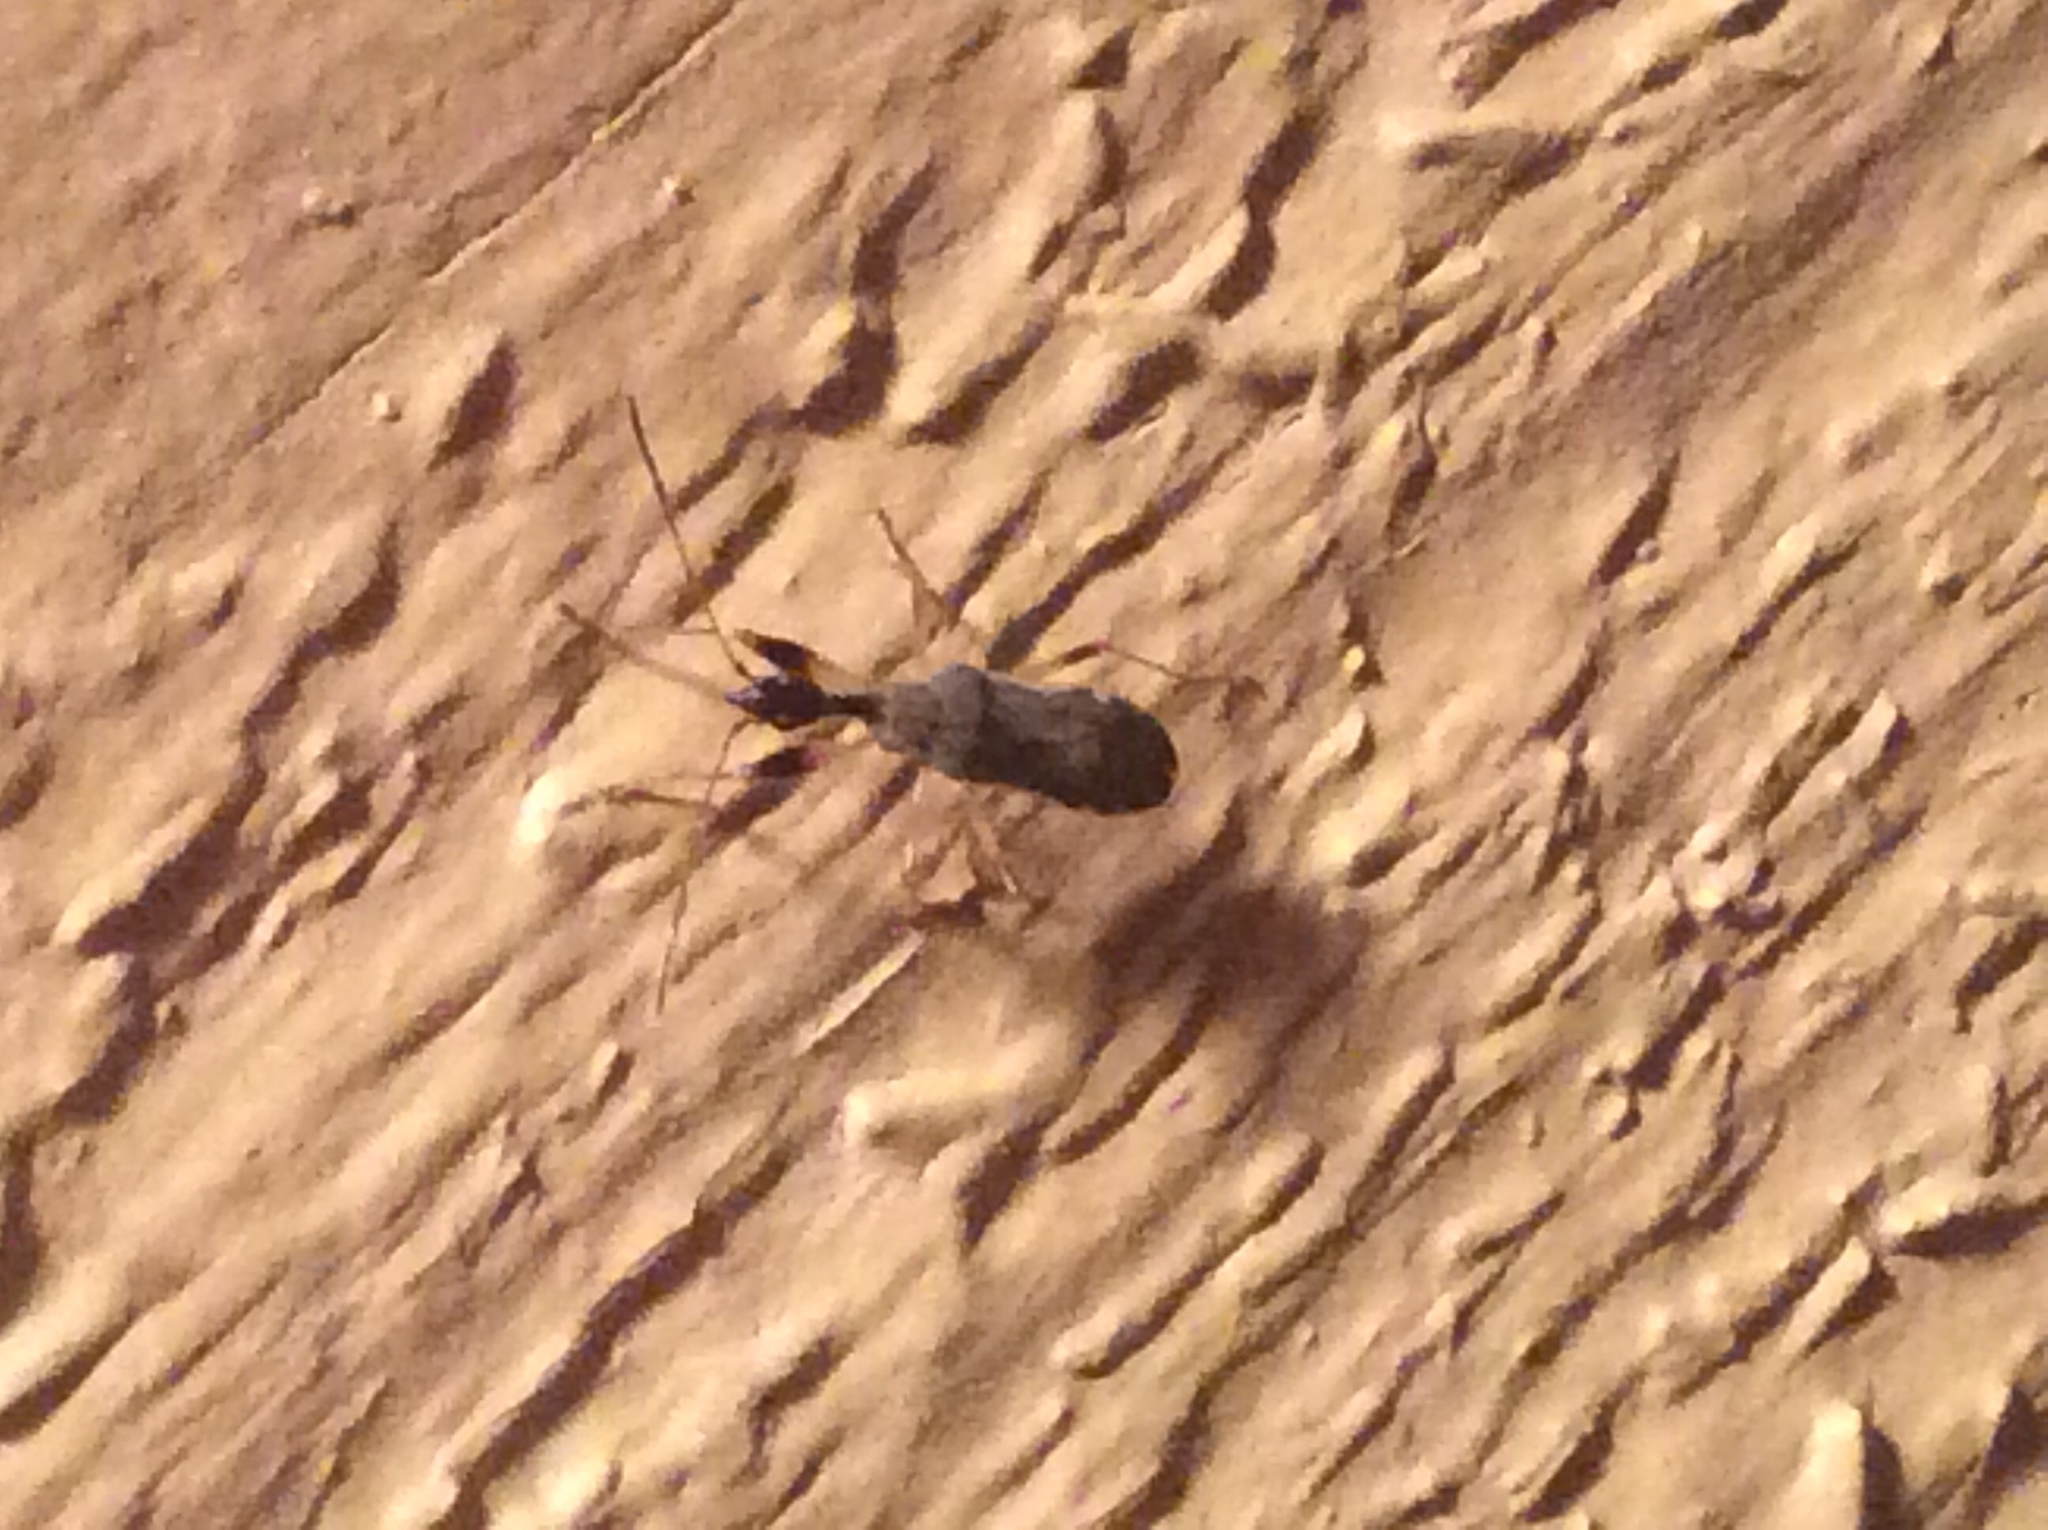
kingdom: Animalia
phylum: Arthropoda
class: Insecta
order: Hemiptera
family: Rhyparochromidae
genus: Myodocha
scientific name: Myodocha serripes
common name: Long-necked seed bug
